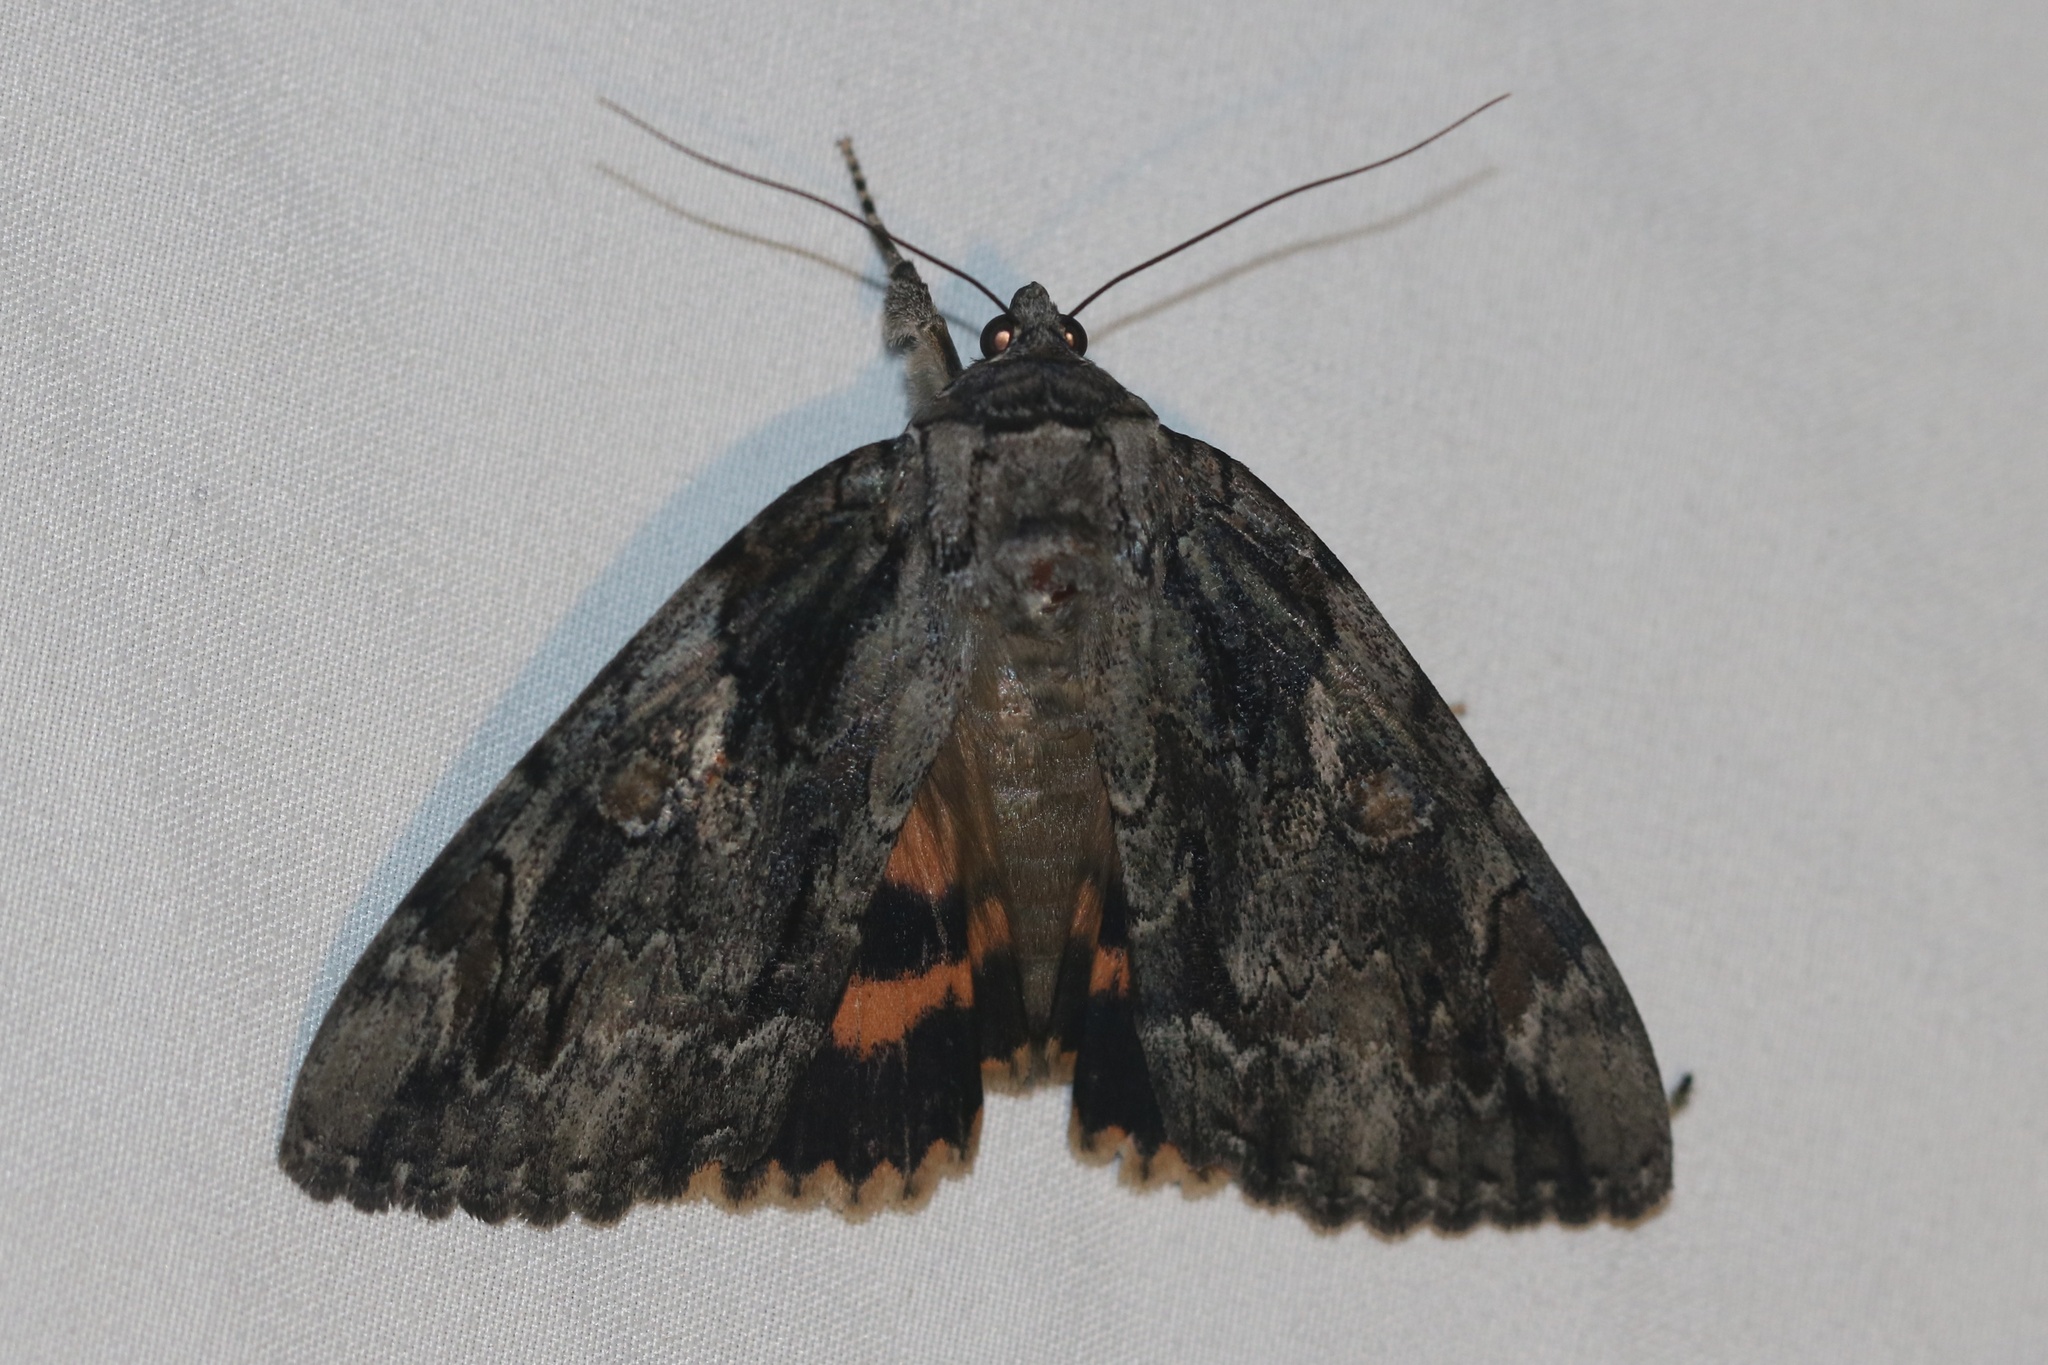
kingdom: Animalia
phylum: Arthropoda
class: Insecta
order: Lepidoptera
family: Erebidae
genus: Catocala
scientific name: Catocala neogama
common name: Bride underwing
